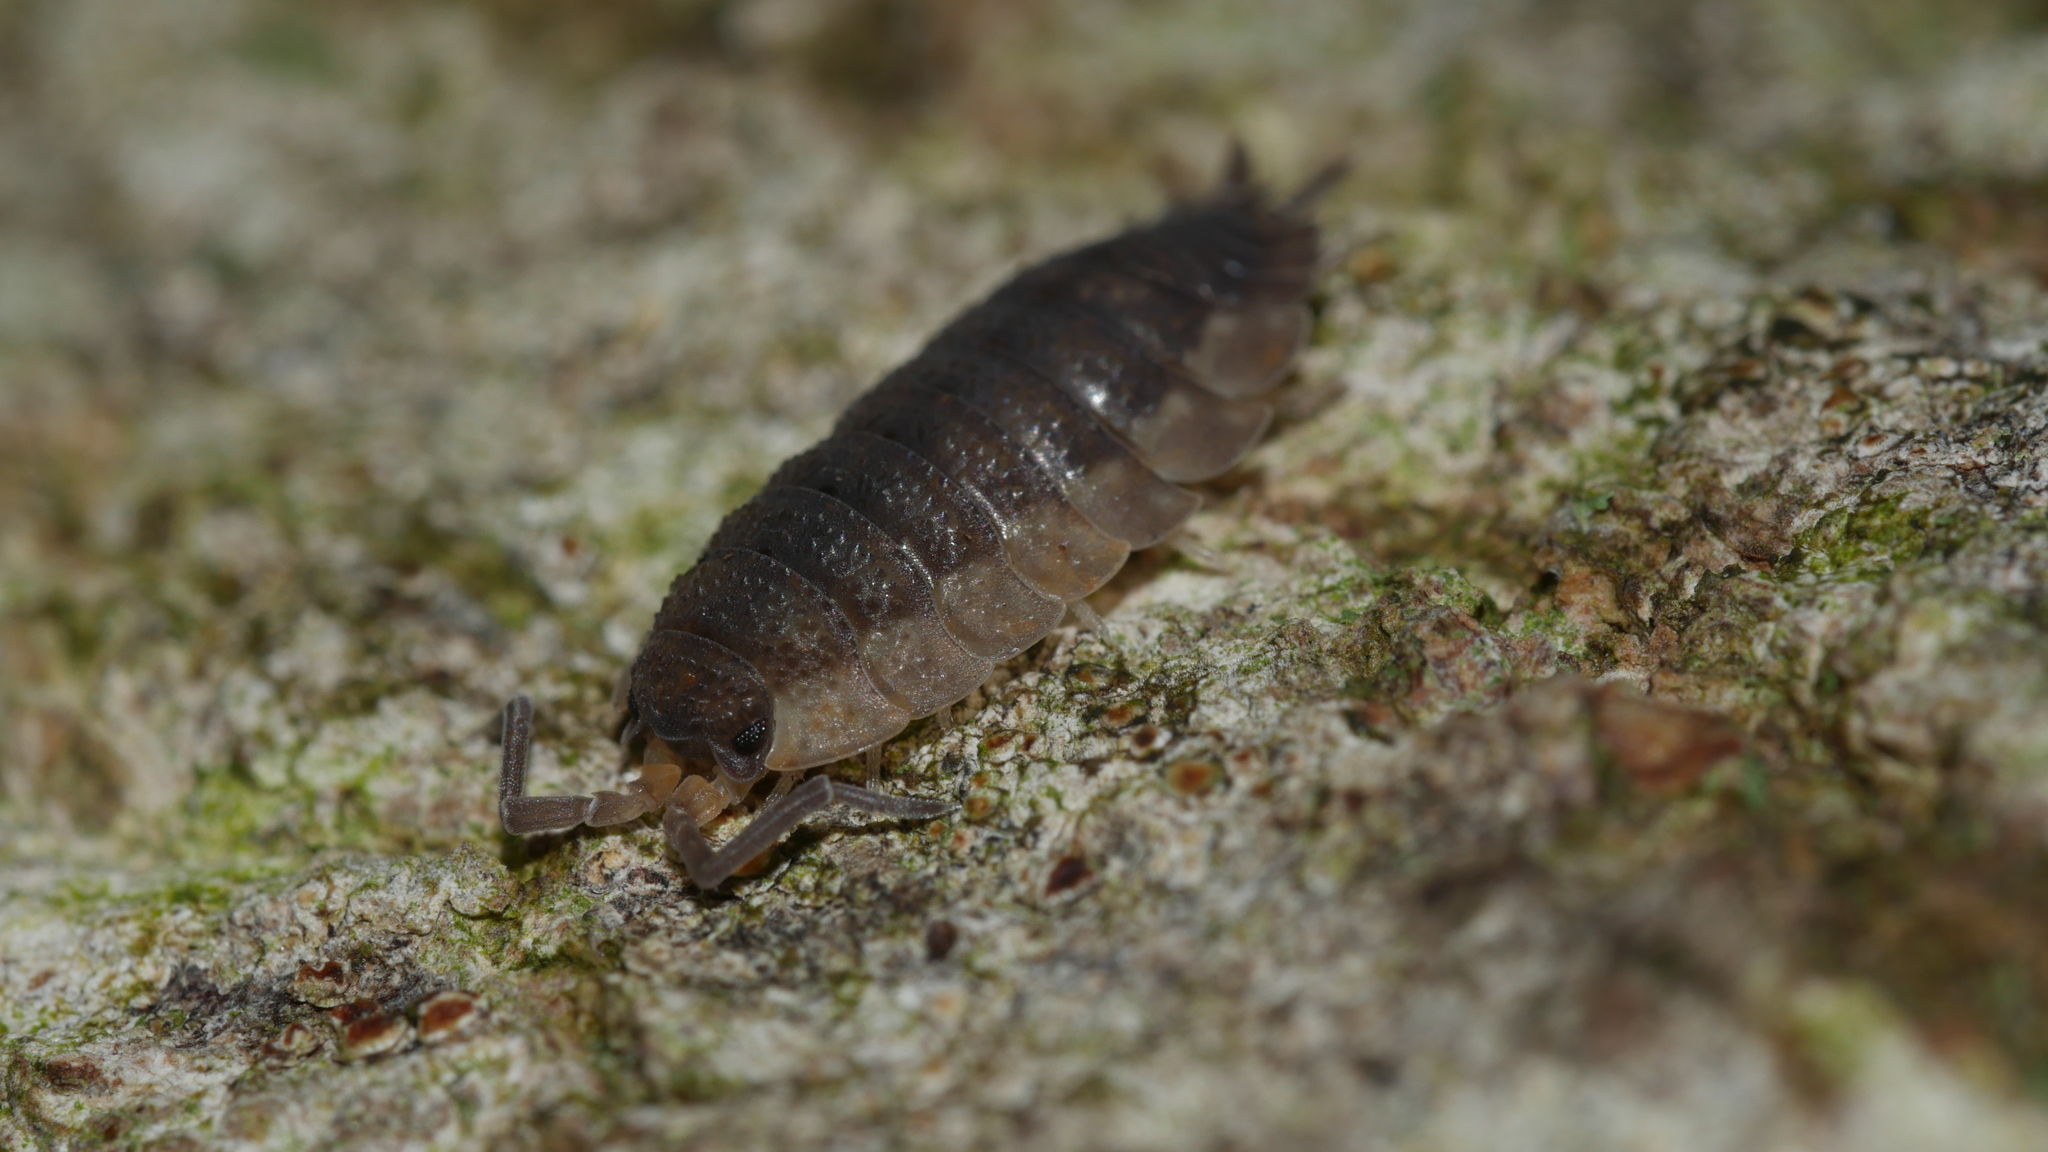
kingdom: Animalia
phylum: Arthropoda
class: Malacostraca
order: Isopoda
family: Porcellionidae
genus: Porcellio
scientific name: Porcellio scaber
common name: Common rough woodlouse
